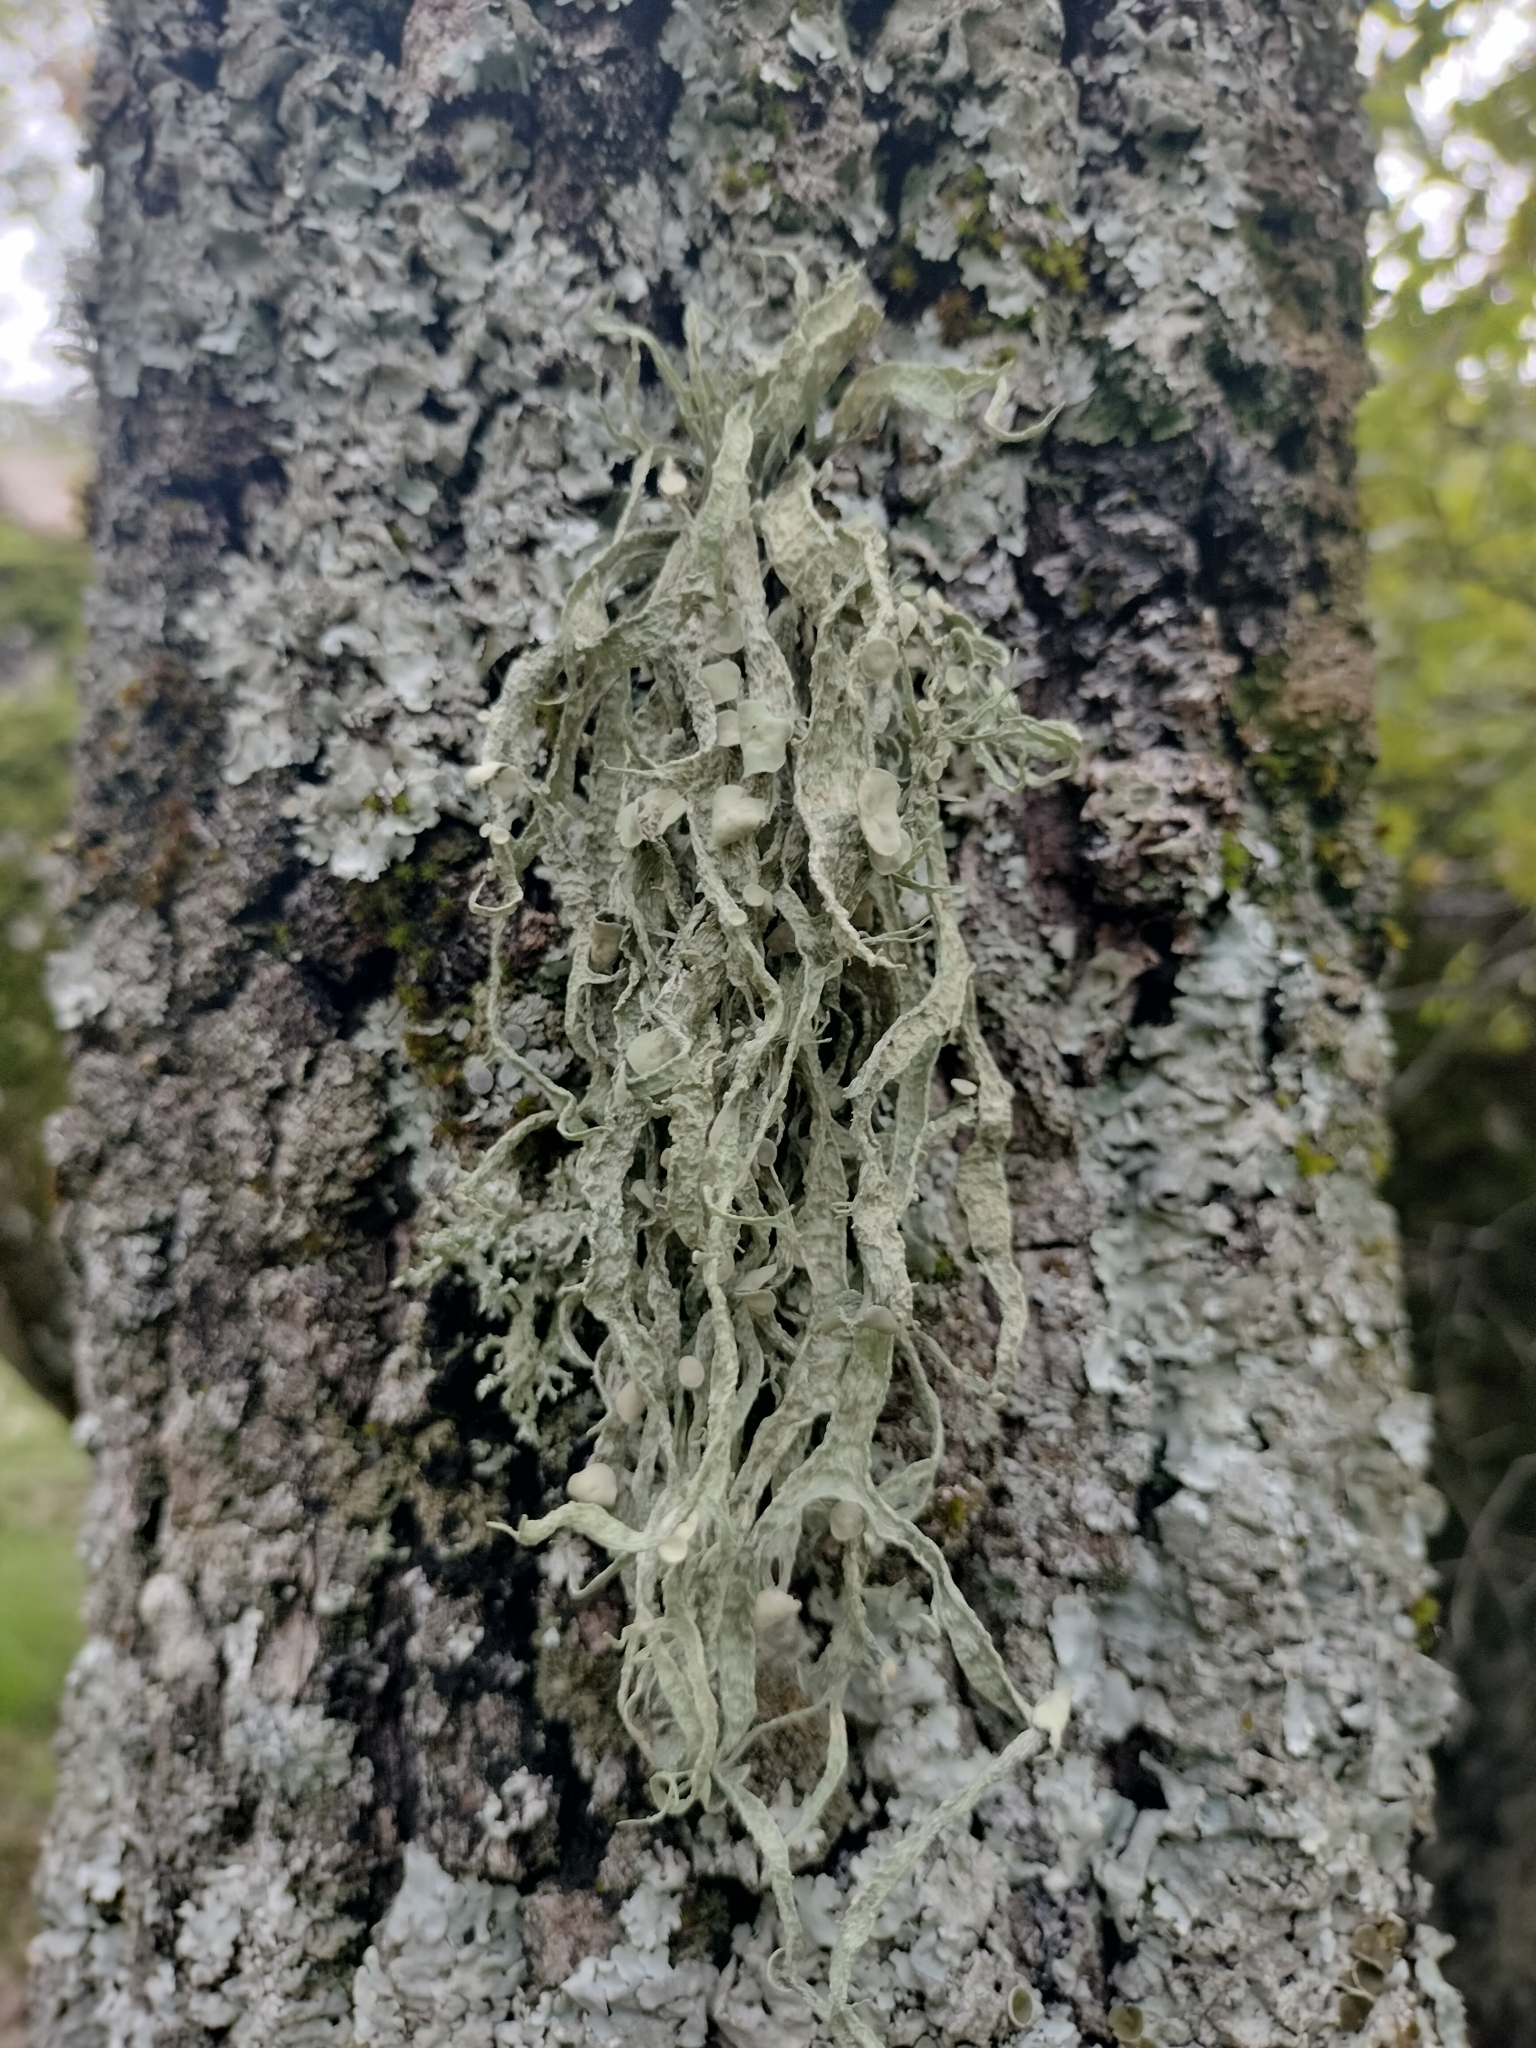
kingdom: Fungi
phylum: Ascomycota
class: Lecanoromycetes
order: Lecanorales
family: Ramalinaceae
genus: Ramalina
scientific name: Ramalina fraxinea
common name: Cartilage lichen
